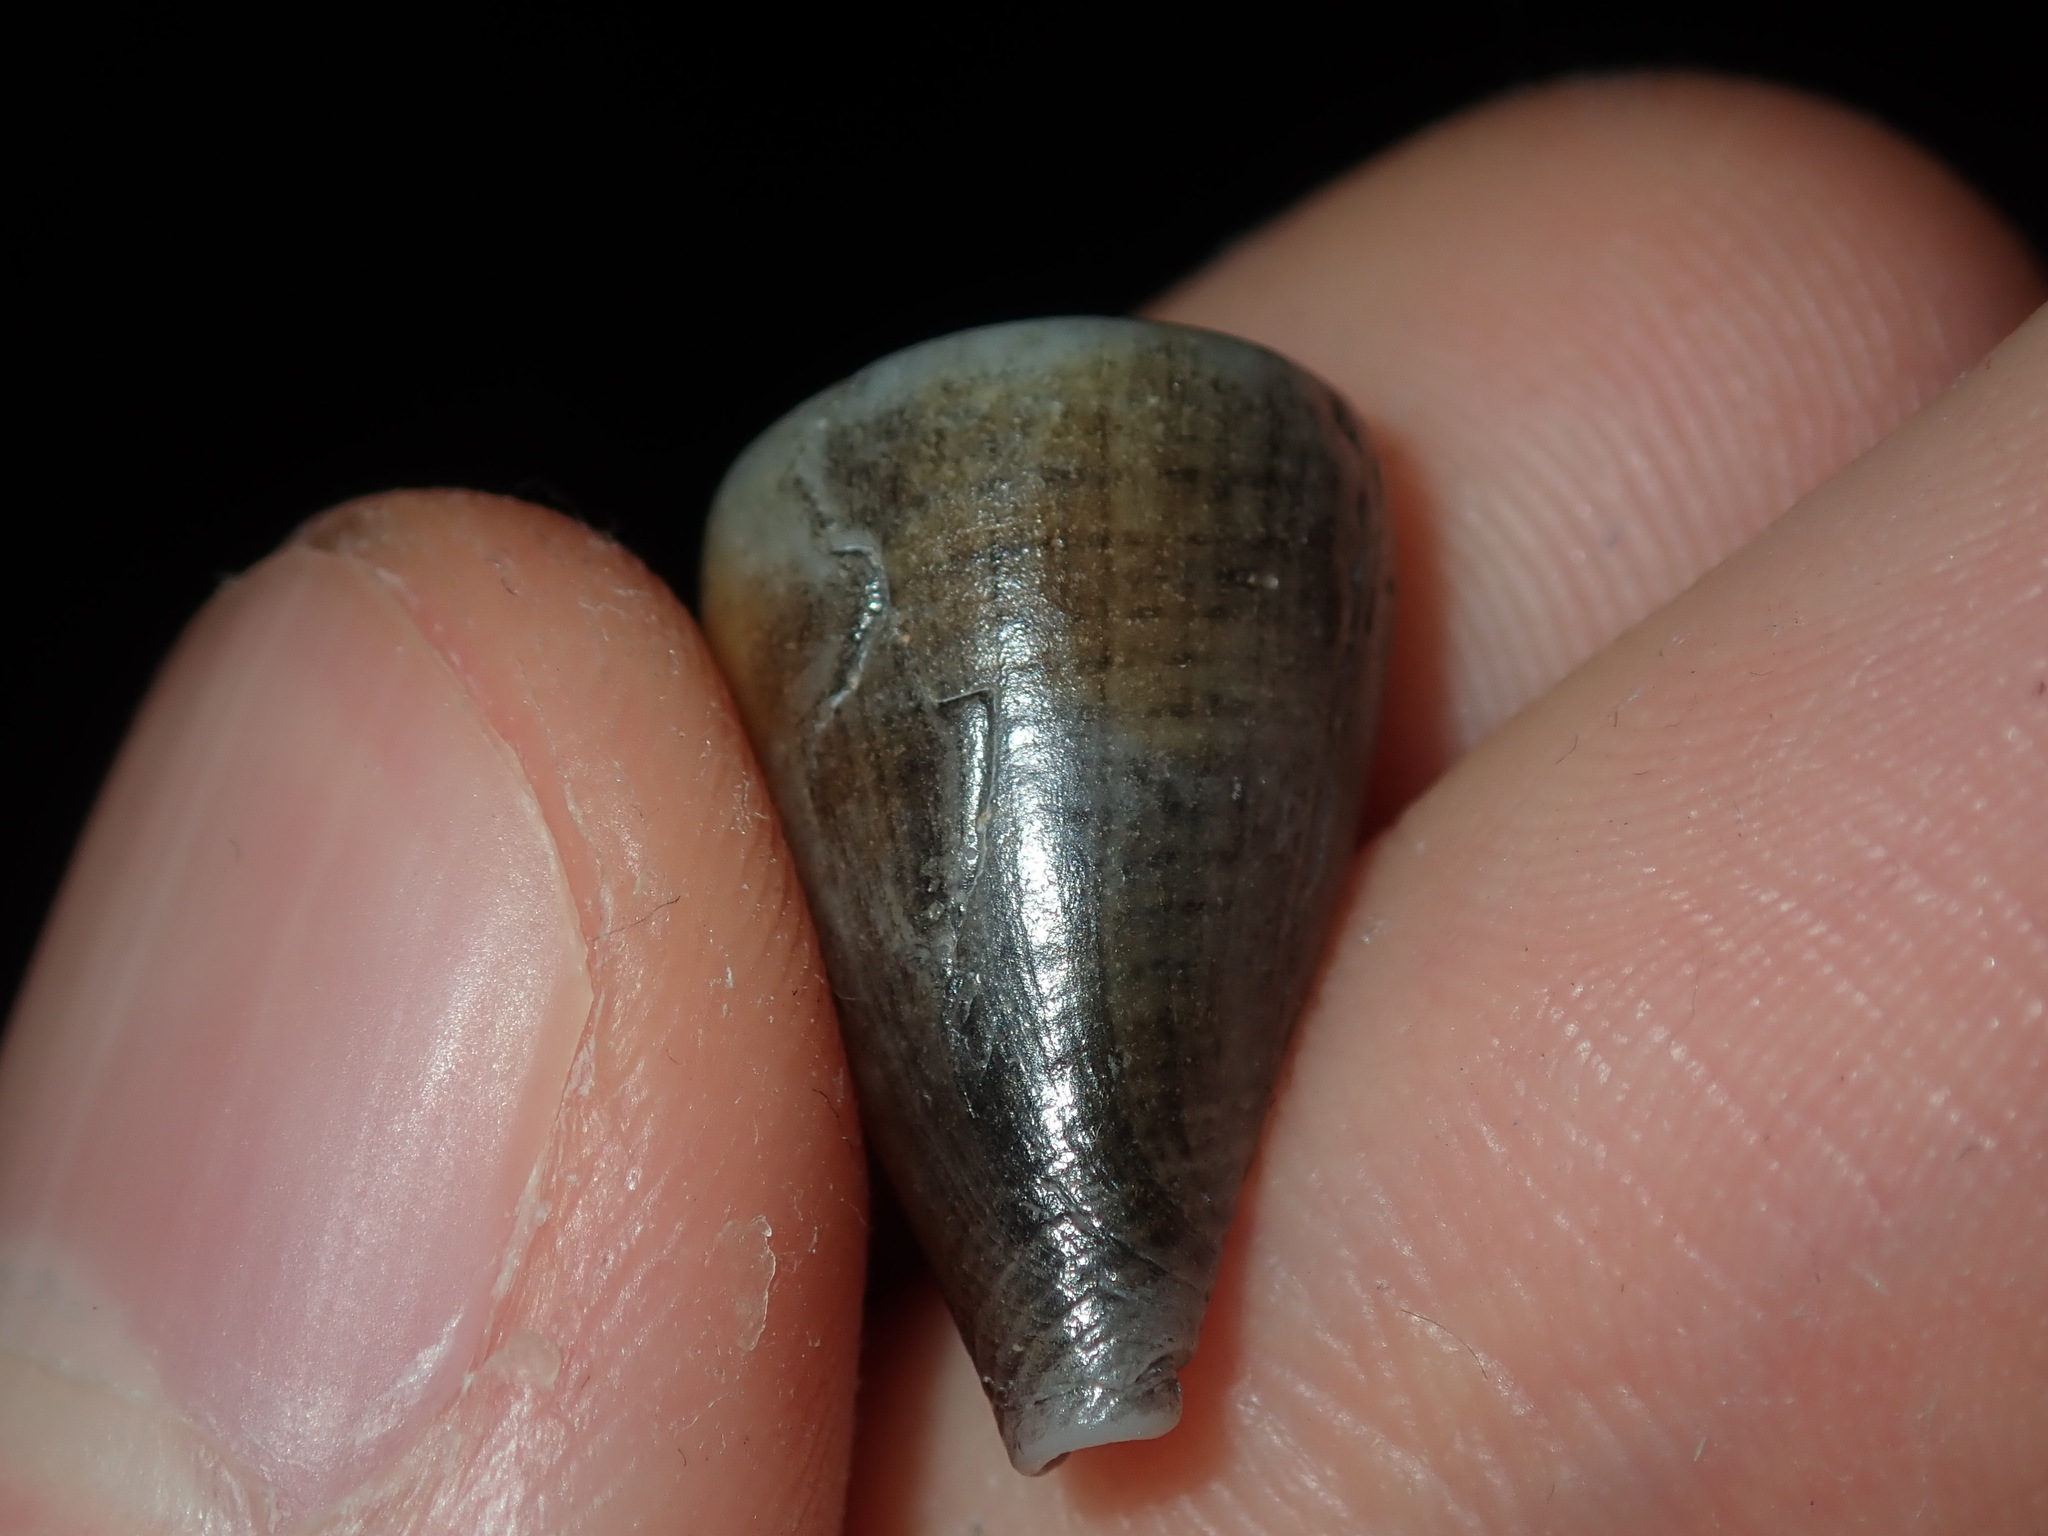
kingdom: Animalia
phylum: Mollusca
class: Gastropoda
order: Neogastropoda
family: Conidae
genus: Conus
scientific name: Conus papilliferus
